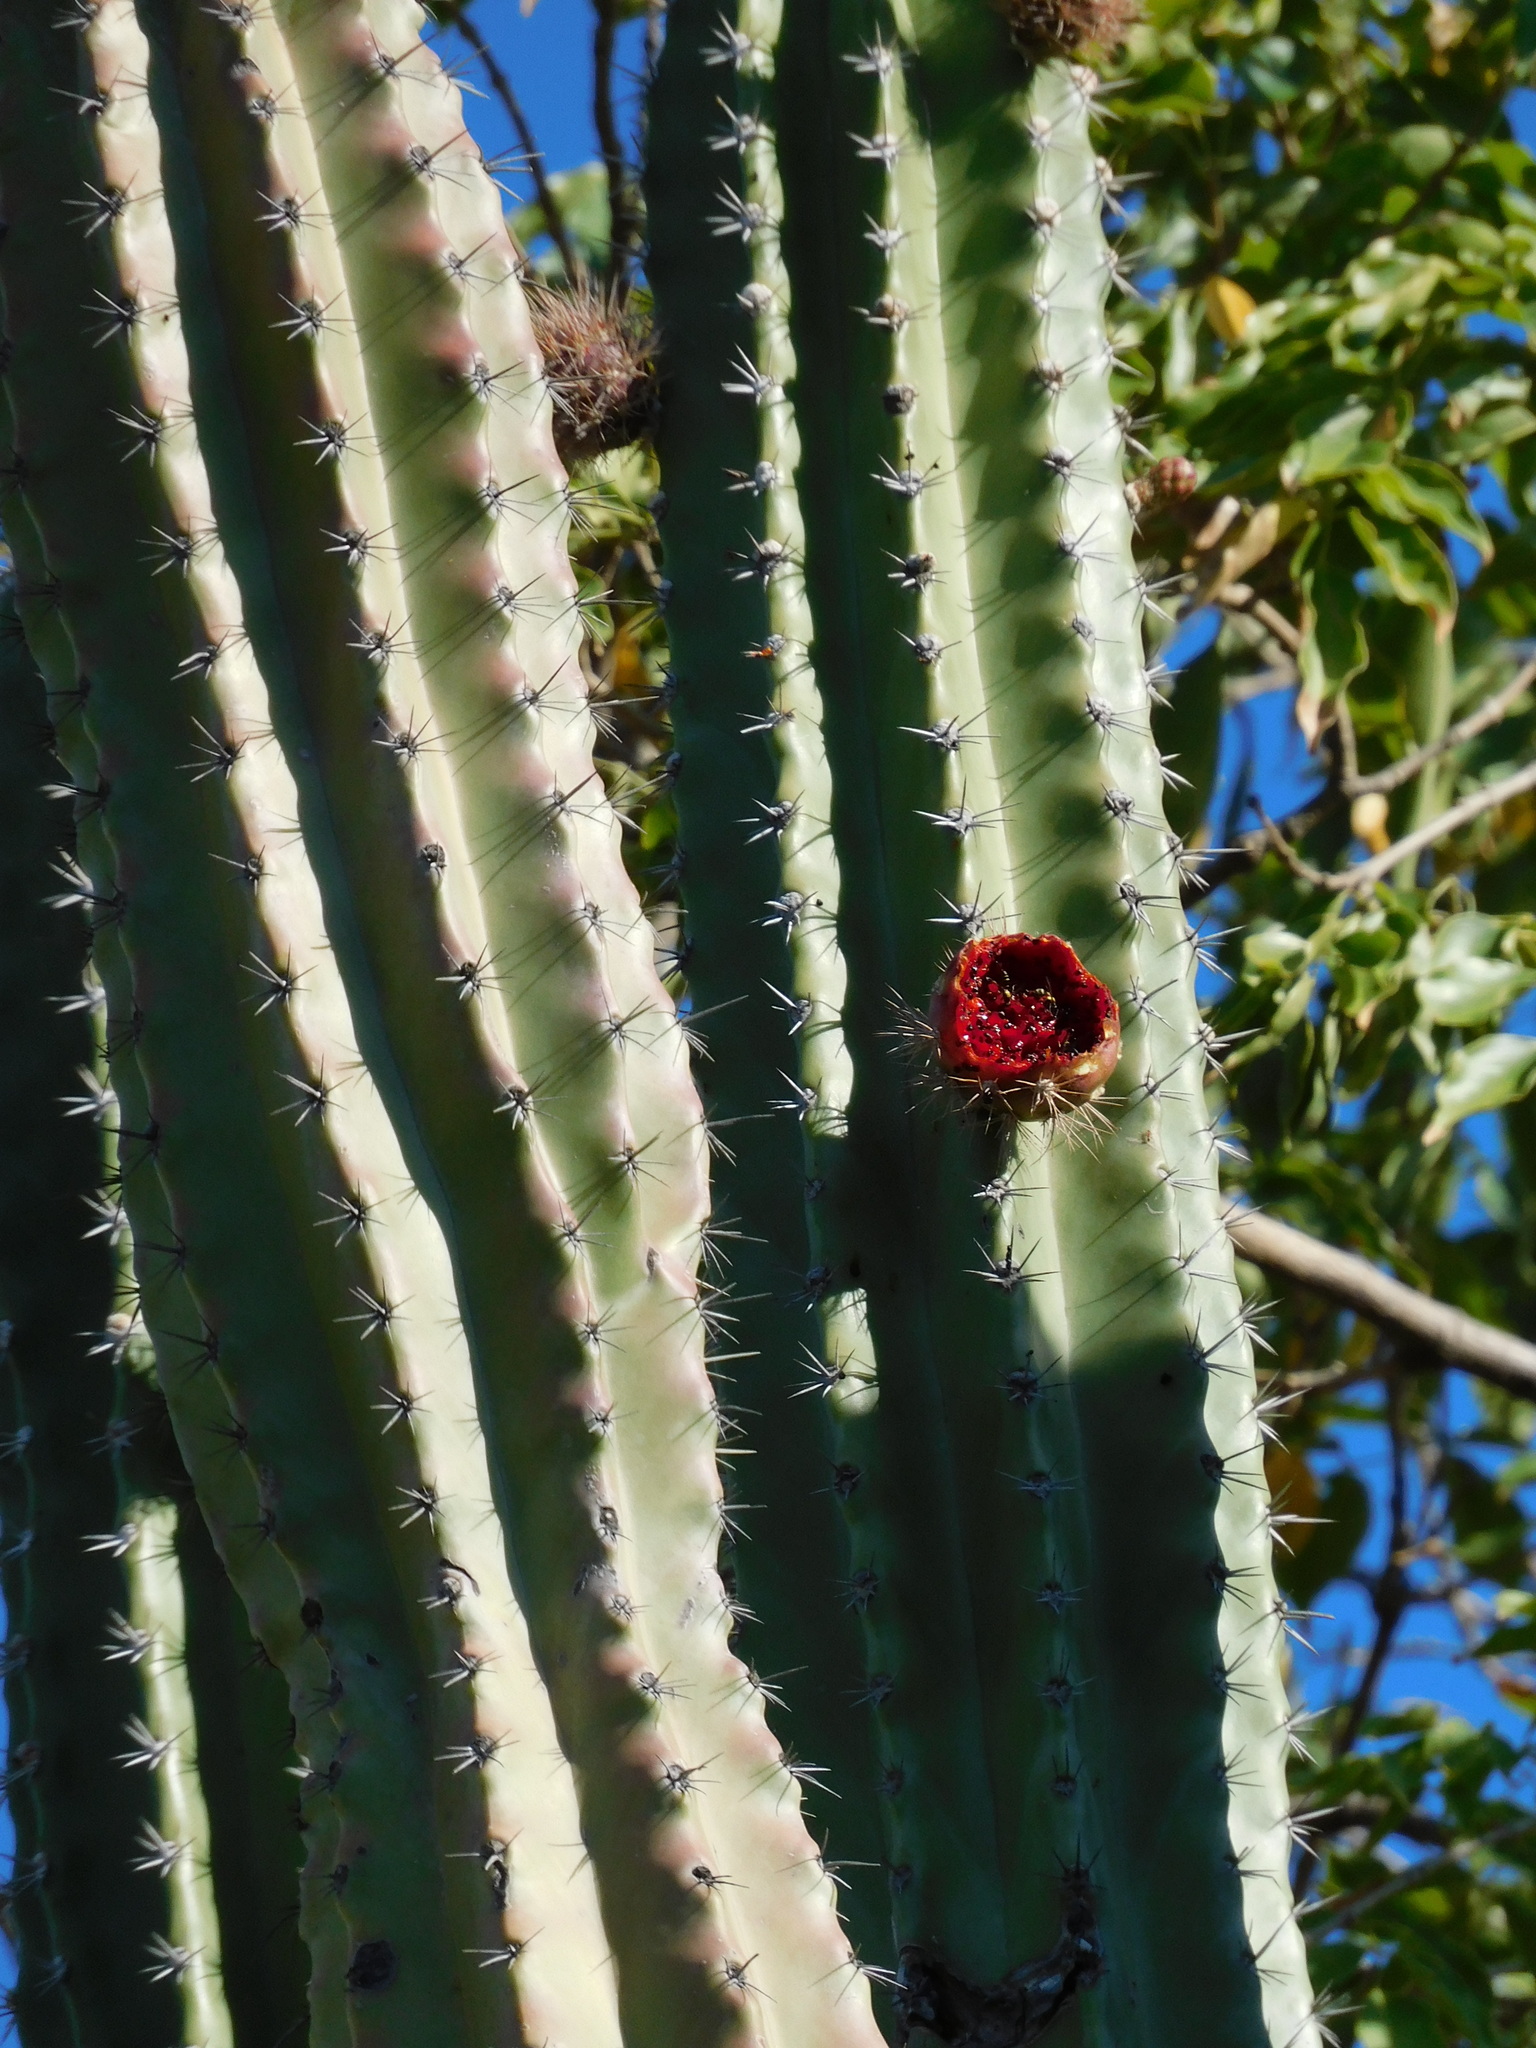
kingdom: Plantae
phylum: Tracheophyta
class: Magnoliopsida
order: Caryophyllales
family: Cactaceae
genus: Stenocereus
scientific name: Stenocereus griseus
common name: Tall candelabra cactus
